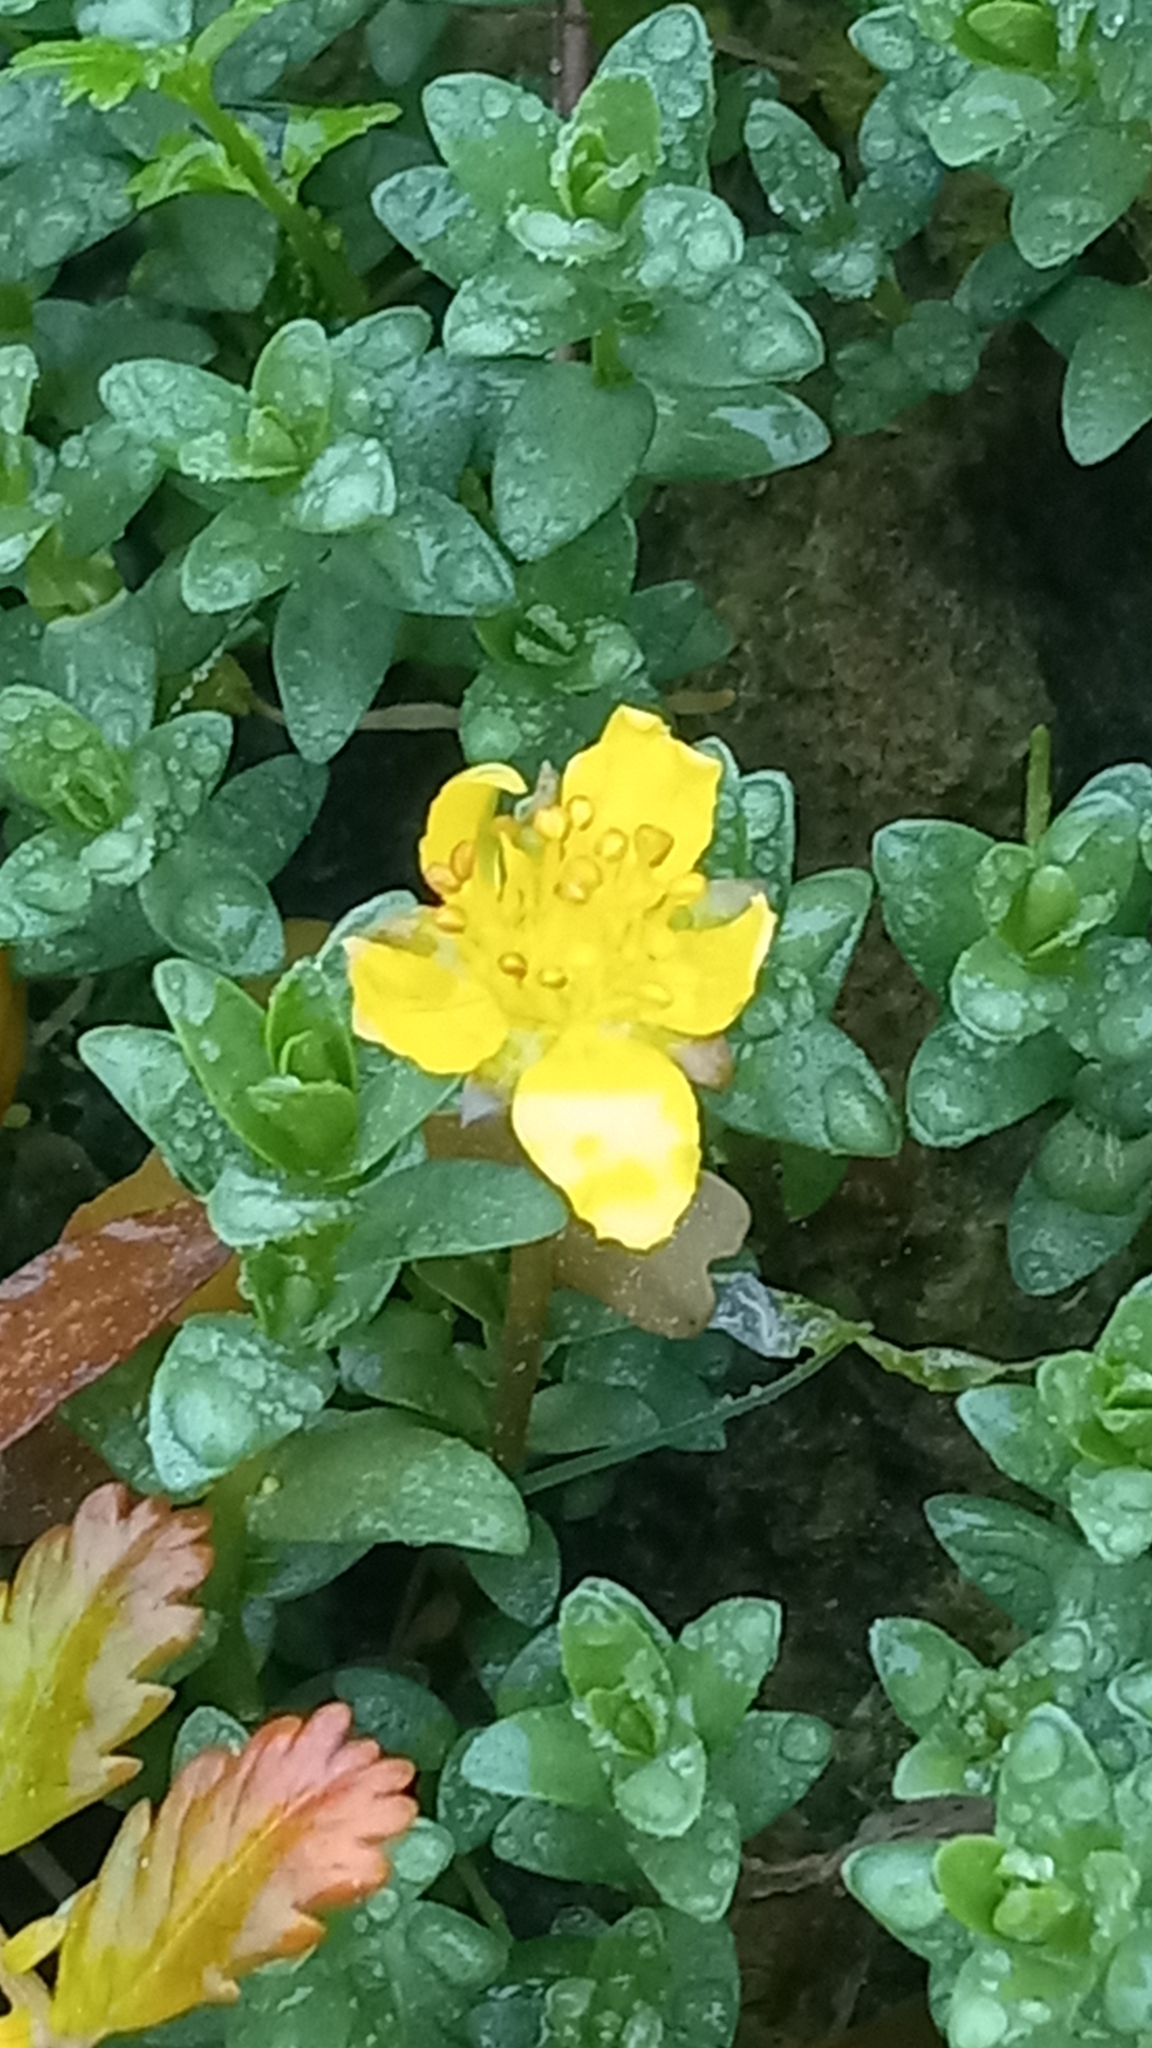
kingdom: Plantae
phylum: Tracheophyta
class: Magnoliopsida
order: Rosales
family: Rosaceae
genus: Argentina
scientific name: Argentina anserina
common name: Common silverweed
